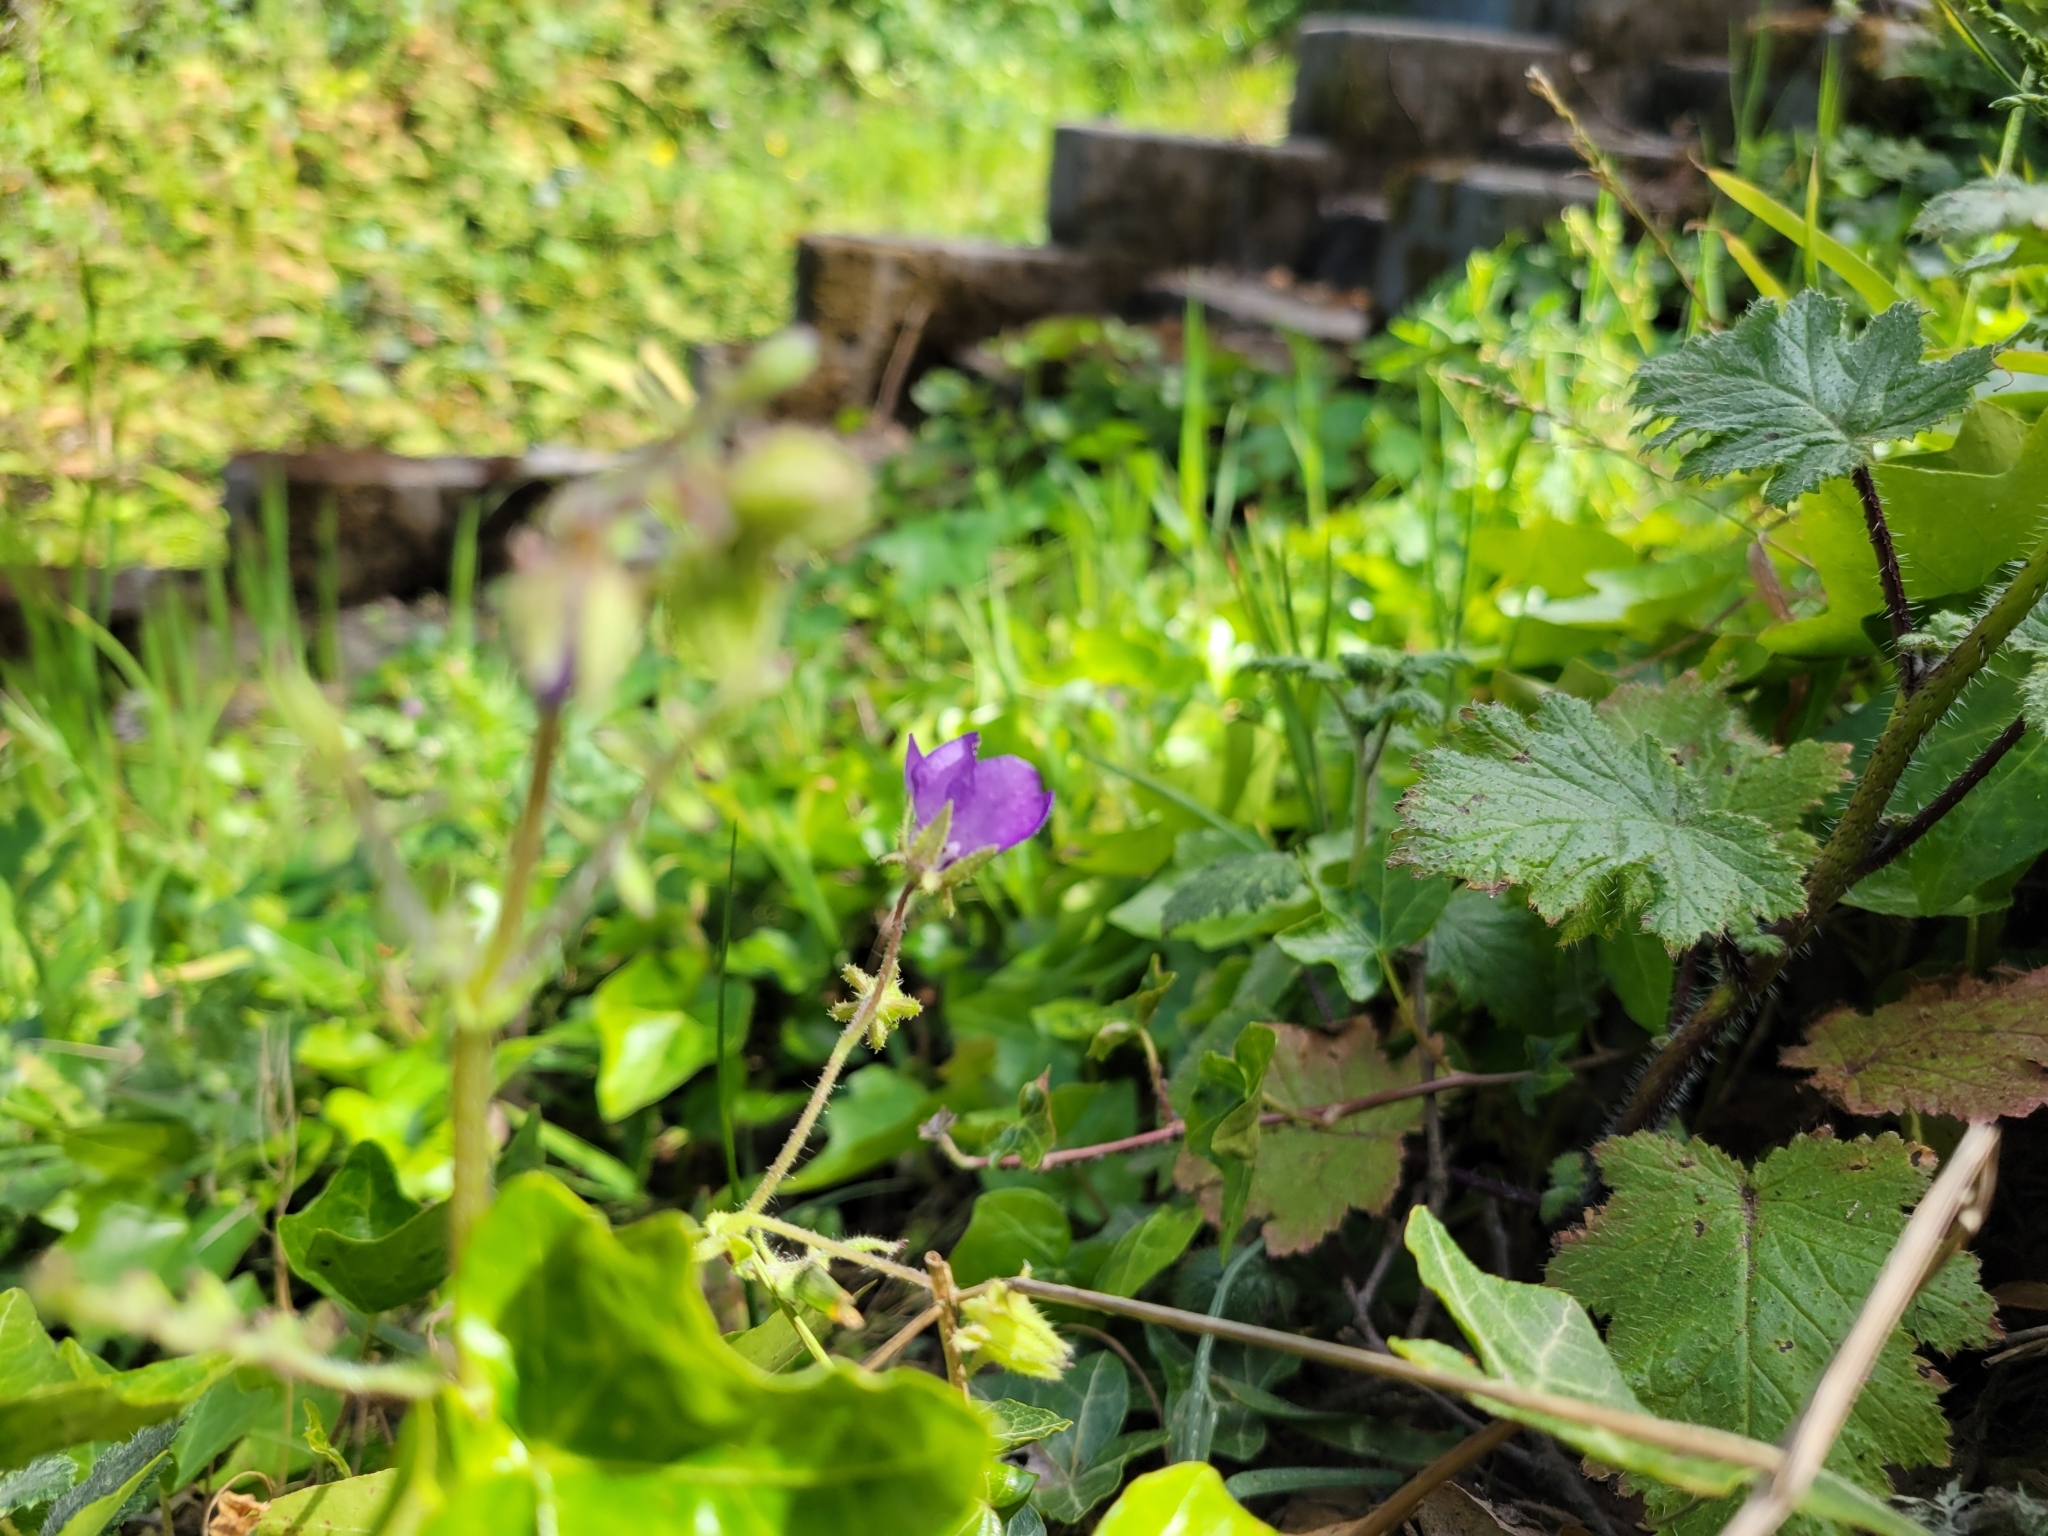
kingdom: Plantae
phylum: Tracheophyta
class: Magnoliopsida
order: Boraginales
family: Hydrophyllaceae
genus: Pholistoma
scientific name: Pholistoma auritum
